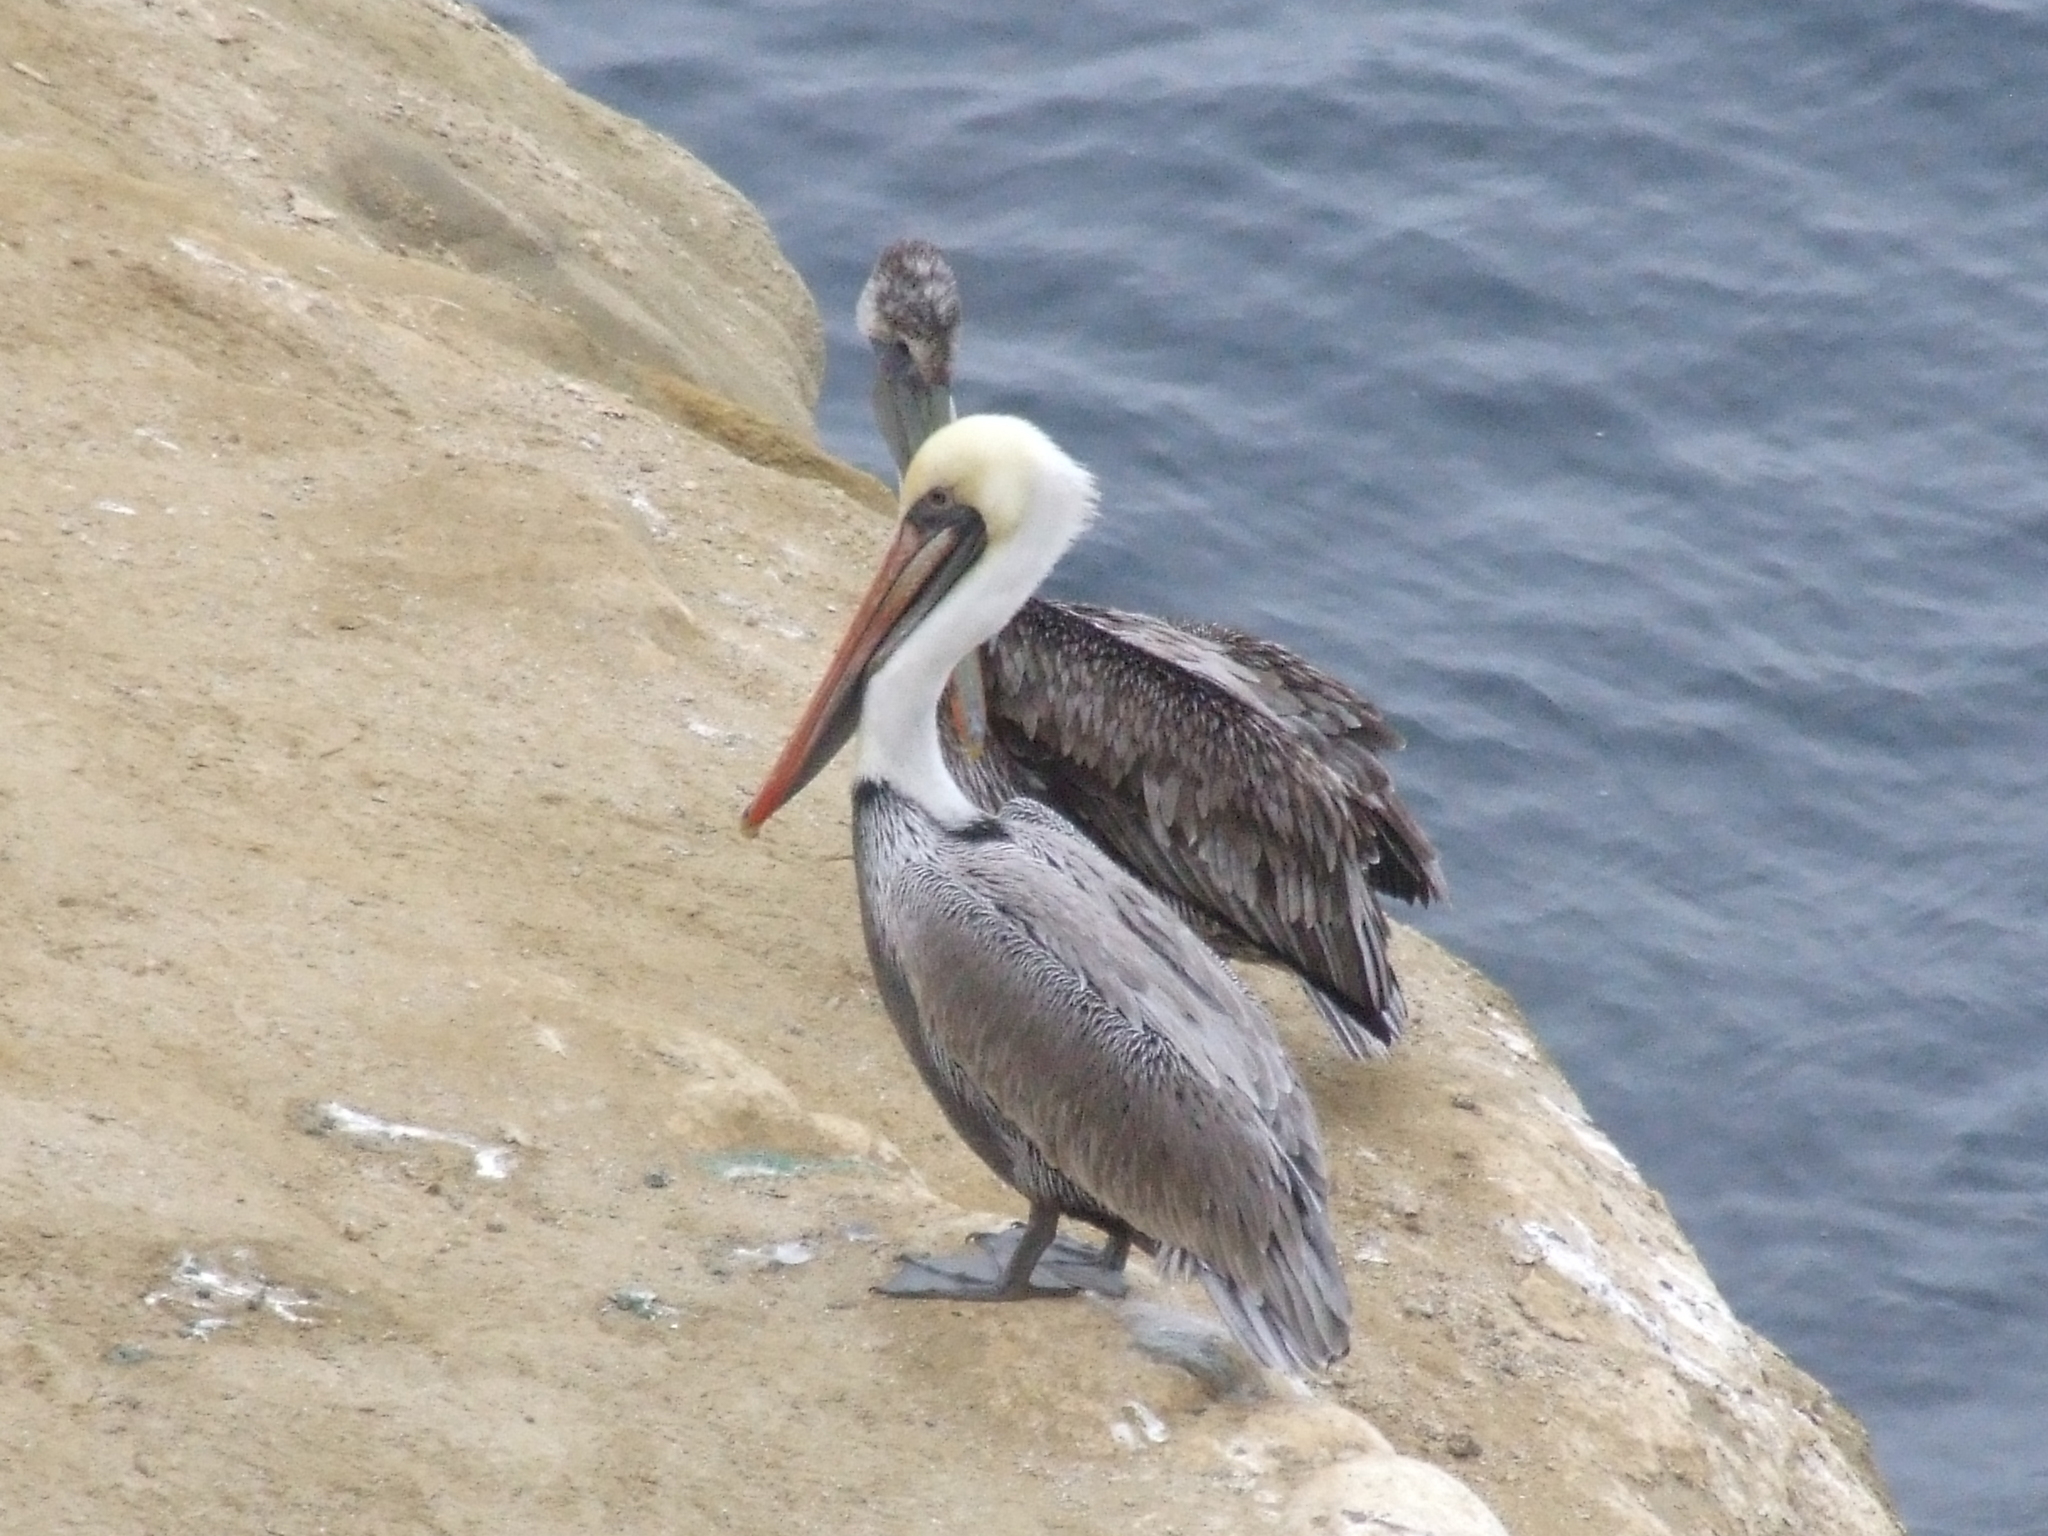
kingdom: Animalia
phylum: Chordata
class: Aves
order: Pelecaniformes
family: Pelecanidae
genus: Pelecanus
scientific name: Pelecanus occidentalis
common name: Brown pelican
